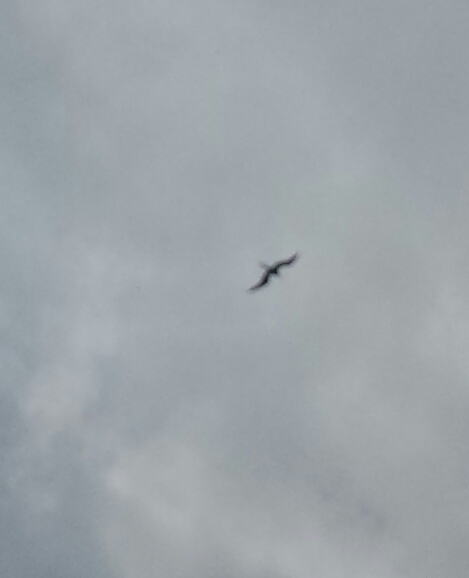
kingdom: Animalia
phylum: Chordata
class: Aves
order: Suliformes
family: Fregatidae
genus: Fregata
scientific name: Fregata magnificens
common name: Magnificent frigatebird
